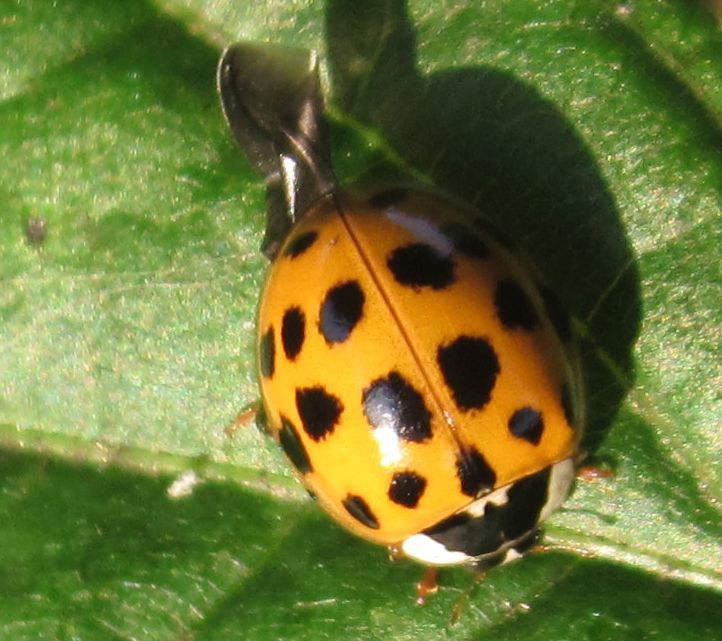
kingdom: Animalia
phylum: Arthropoda
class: Insecta
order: Coleoptera
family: Coccinellidae
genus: Harmonia
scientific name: Harmonia axyridis
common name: Harlequin ladybird
